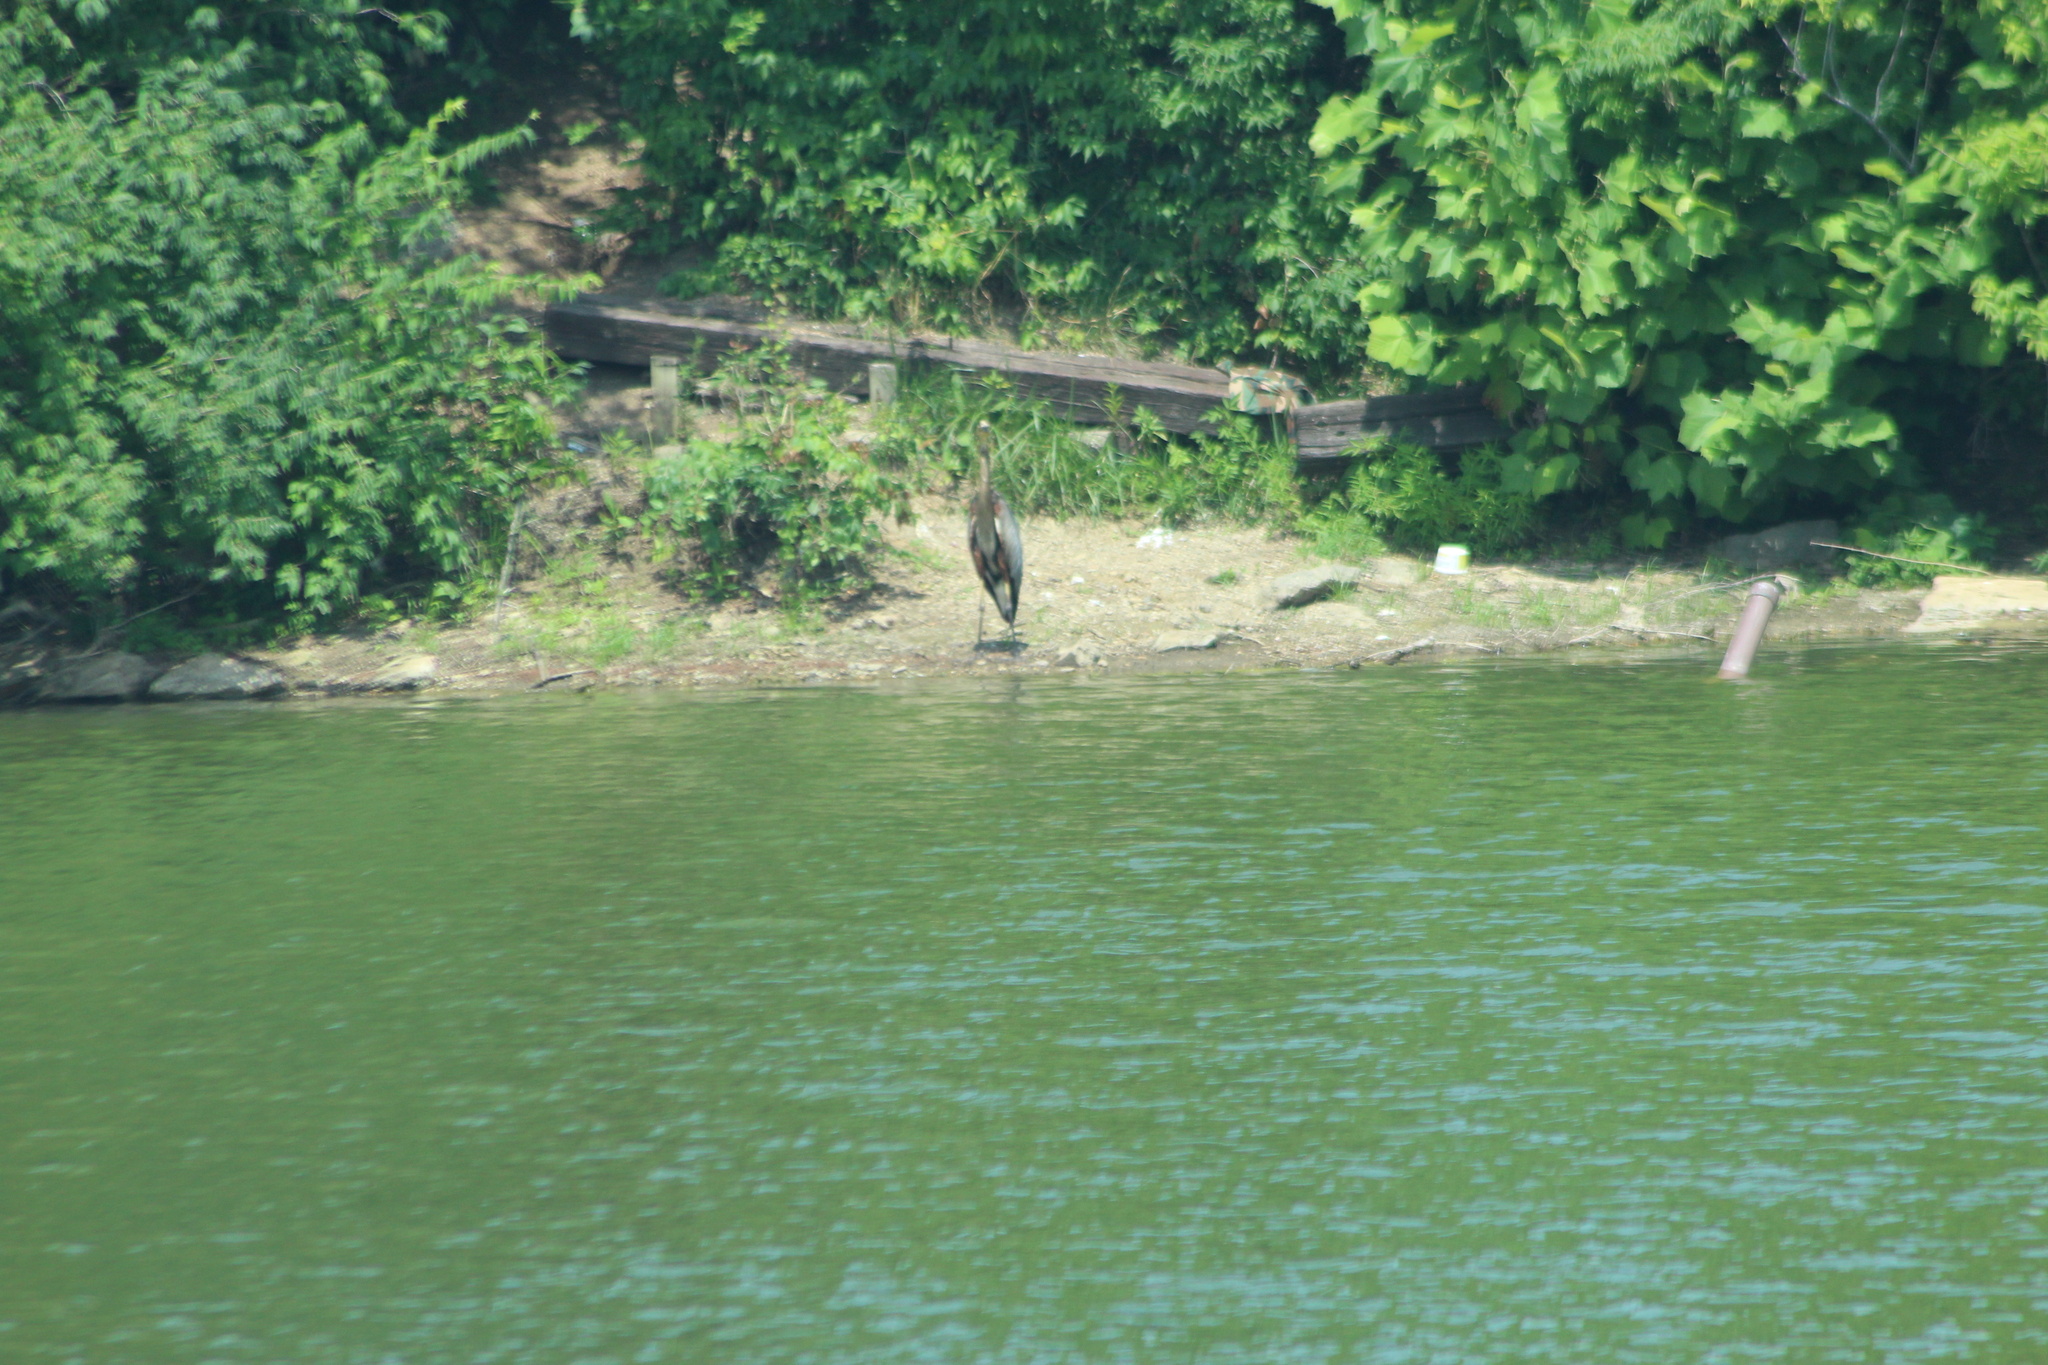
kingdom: Animalia
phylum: Chordata
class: Aves
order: Pelecaniformes
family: Ardeidae
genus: Ardea
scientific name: Ardea herodias
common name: Great blue heron
